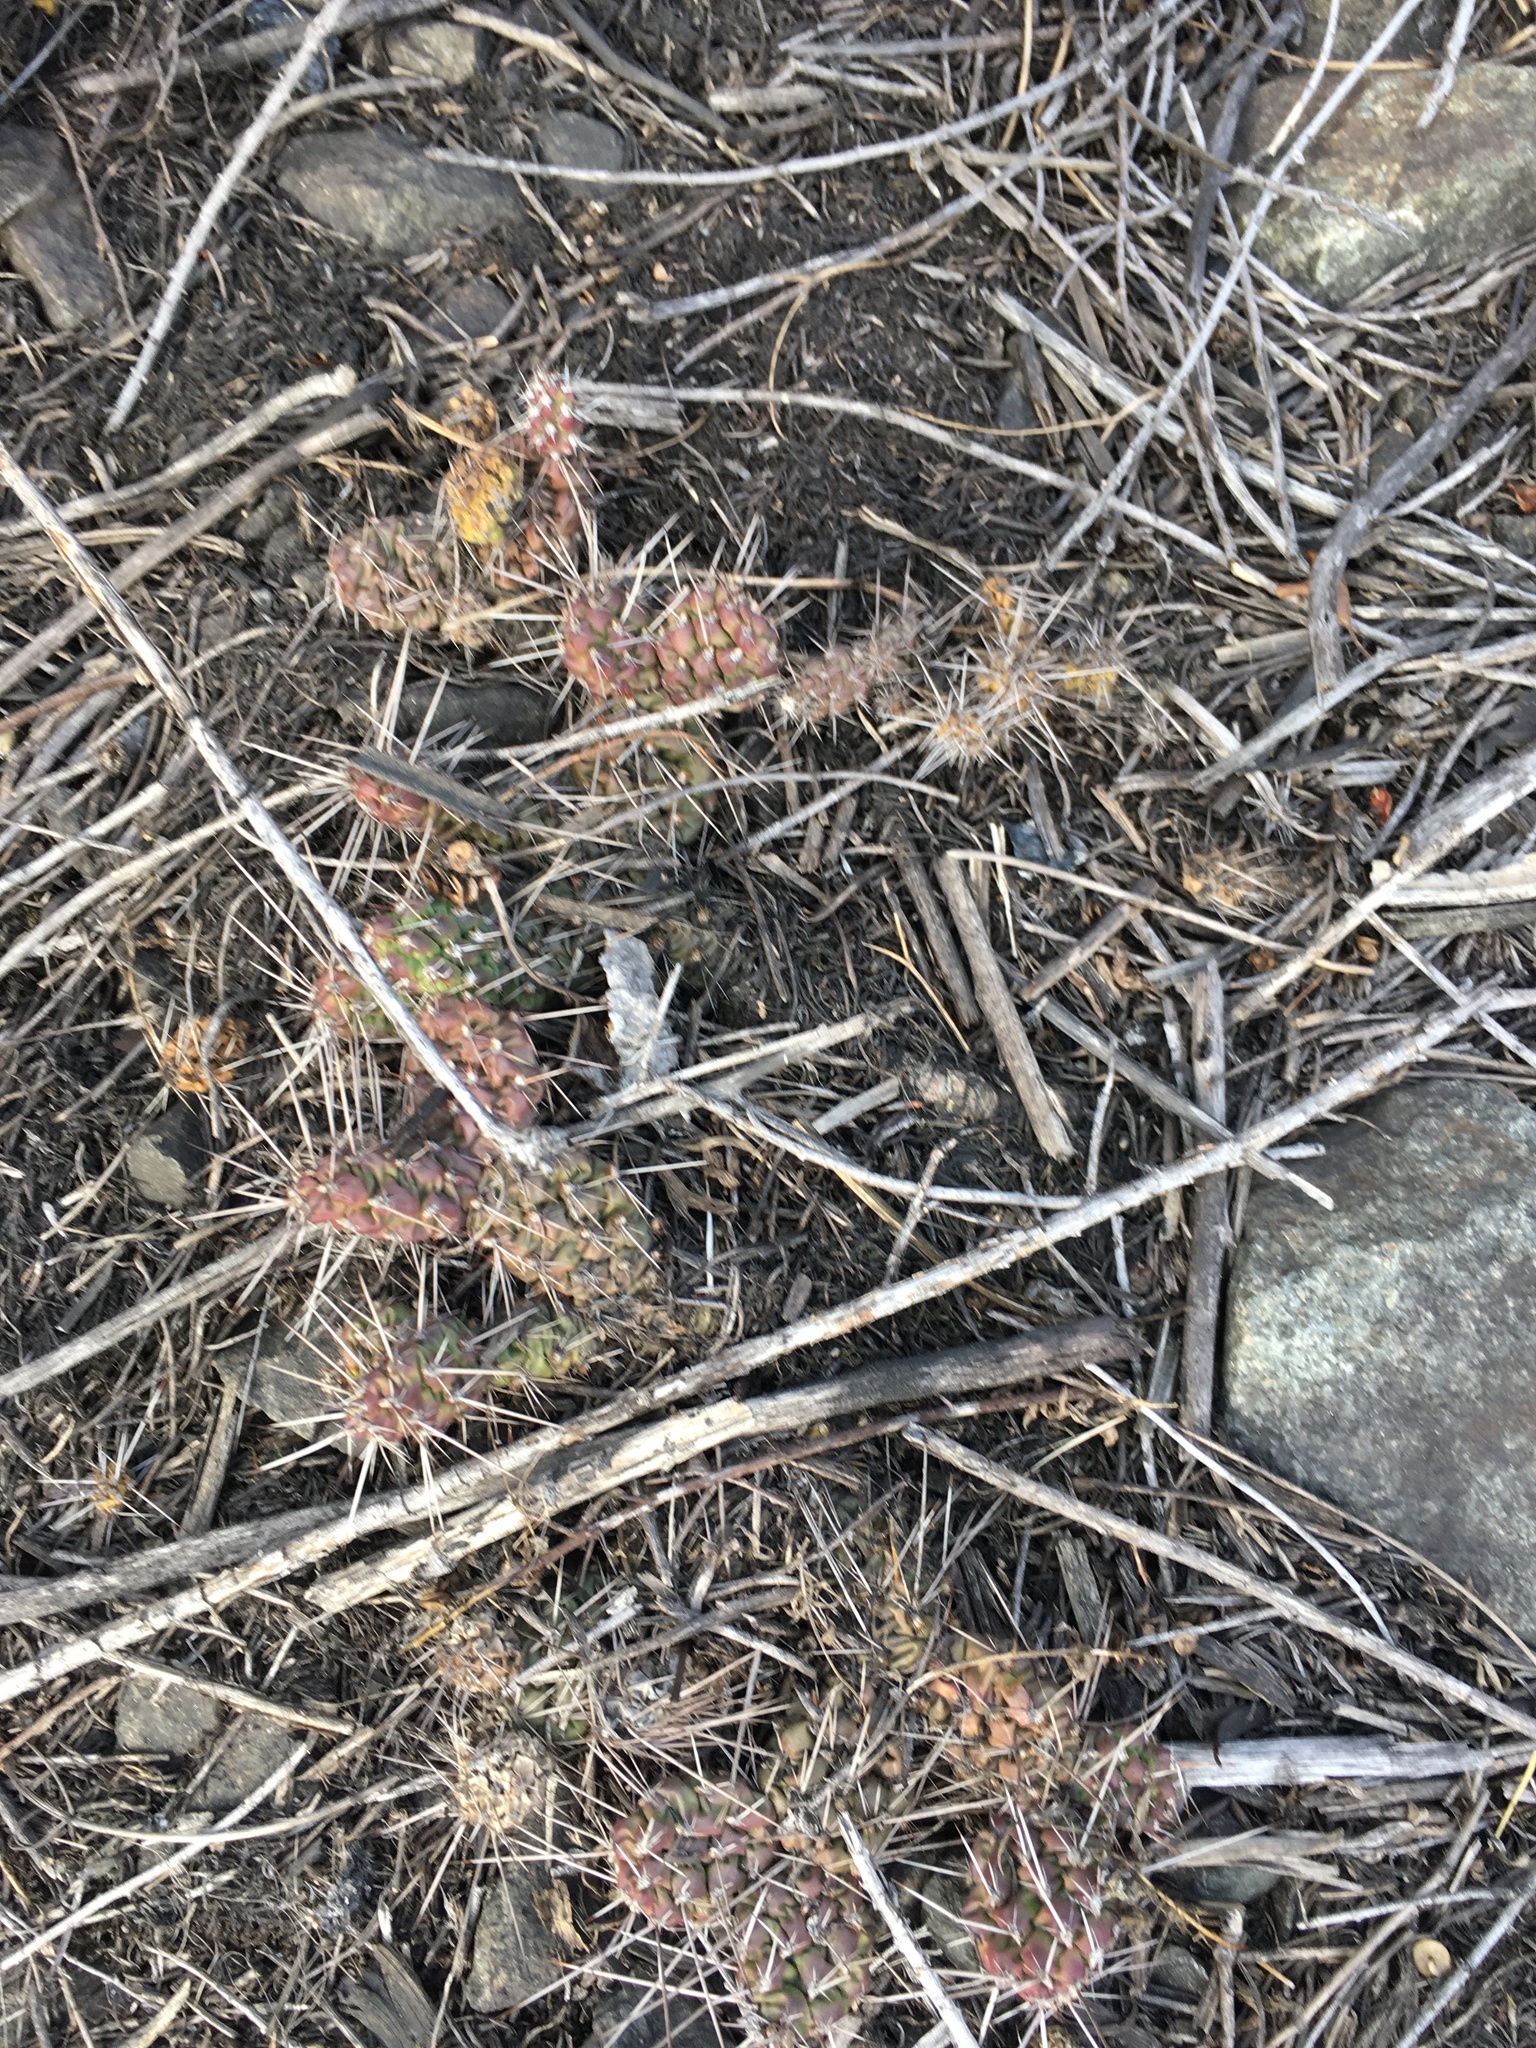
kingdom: Plantae
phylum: Tracheophyta
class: Magnoliopsida
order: Caryophyllales
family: Cactaceae
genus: Opuntia
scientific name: Opuntia fragilis
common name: Brittle cactus
